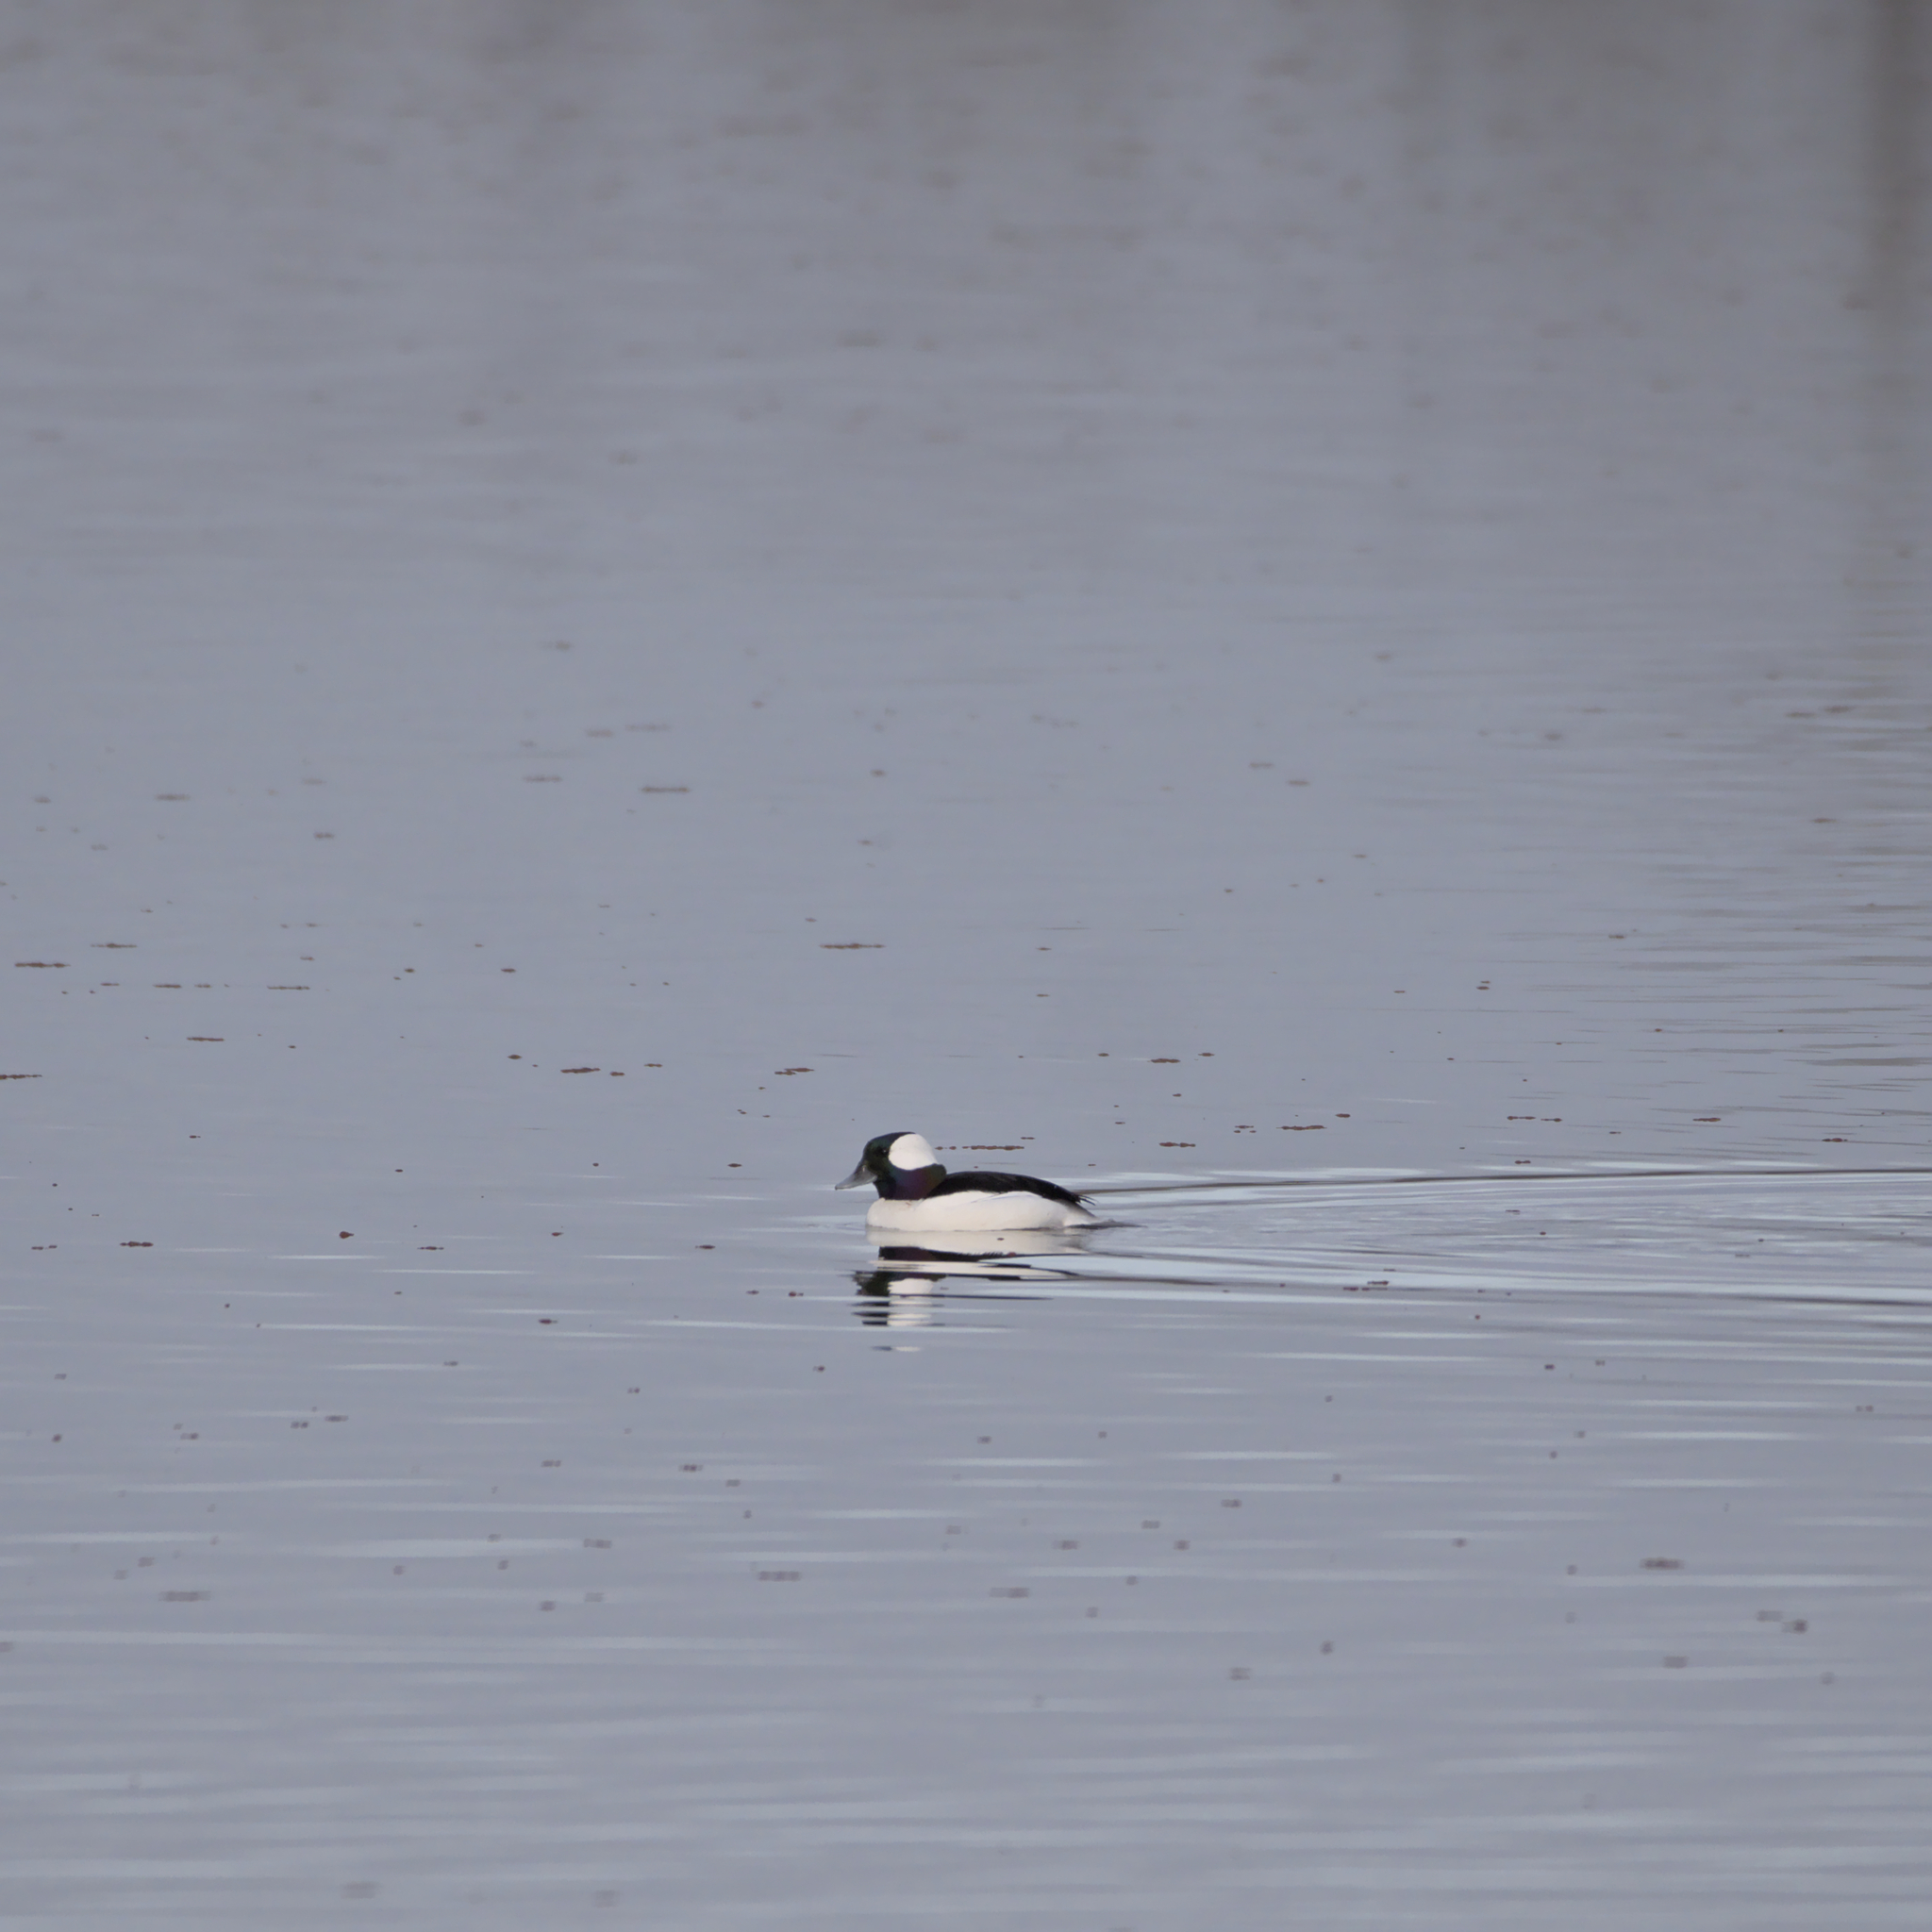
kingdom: Animalia
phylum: Chordata
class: Aves
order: Anseriformes
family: Anatidae
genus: Bucephala
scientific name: Bucephala albeola
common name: Bufflehead
